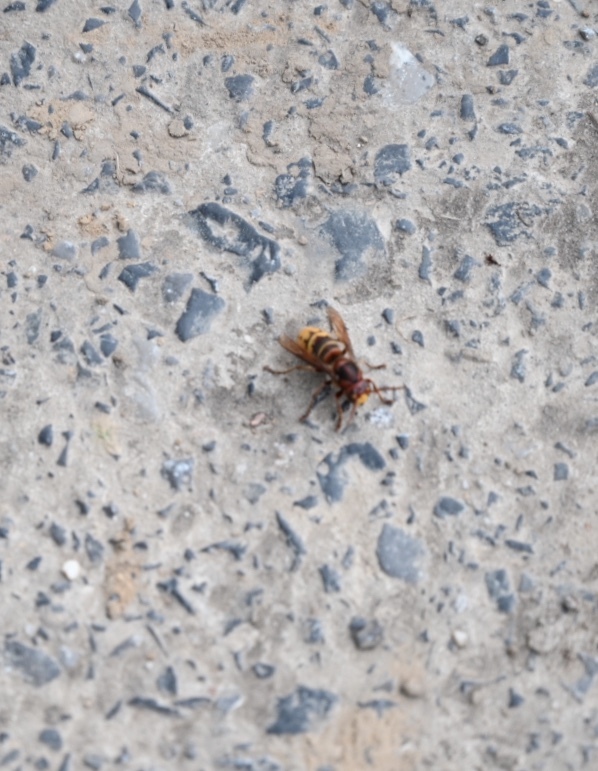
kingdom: Animalia
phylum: Arthropoda
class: Insecta
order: Hymenoptera
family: Vespidae
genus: Vespa
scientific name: Vespa crabro
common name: Hornet
